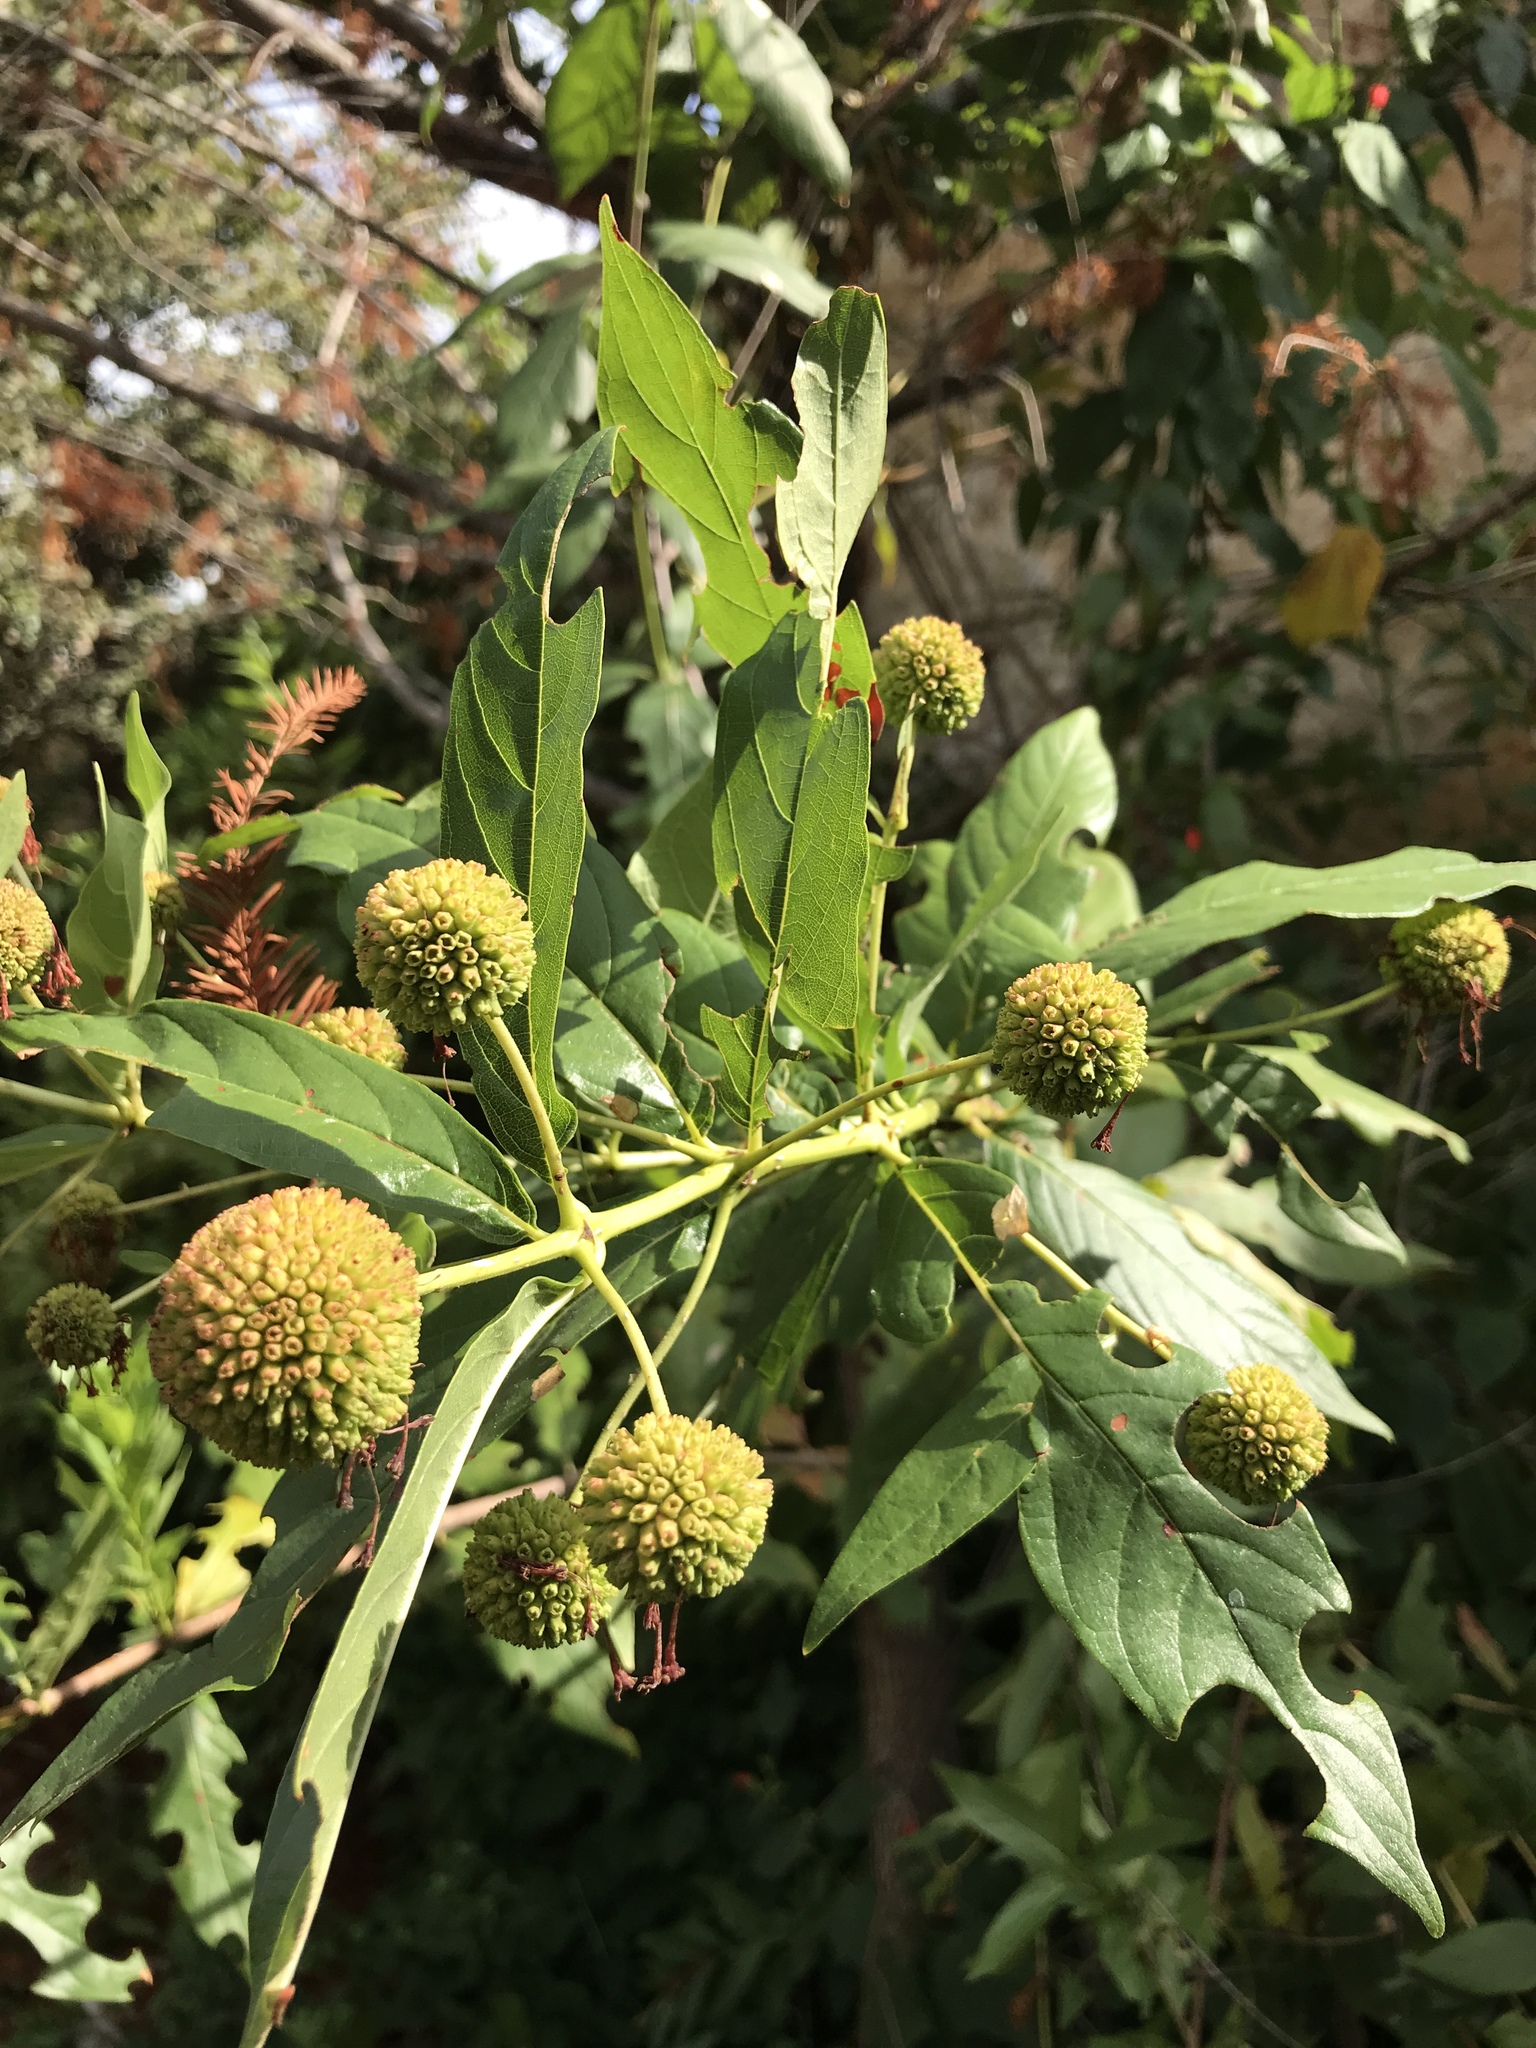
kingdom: Plantae
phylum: Tracheophyta
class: Magnoliopsida
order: Gentianales
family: Rubiaceae
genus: Cephalanthus
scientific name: Cephalanthus occidentalis
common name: Button-willow
